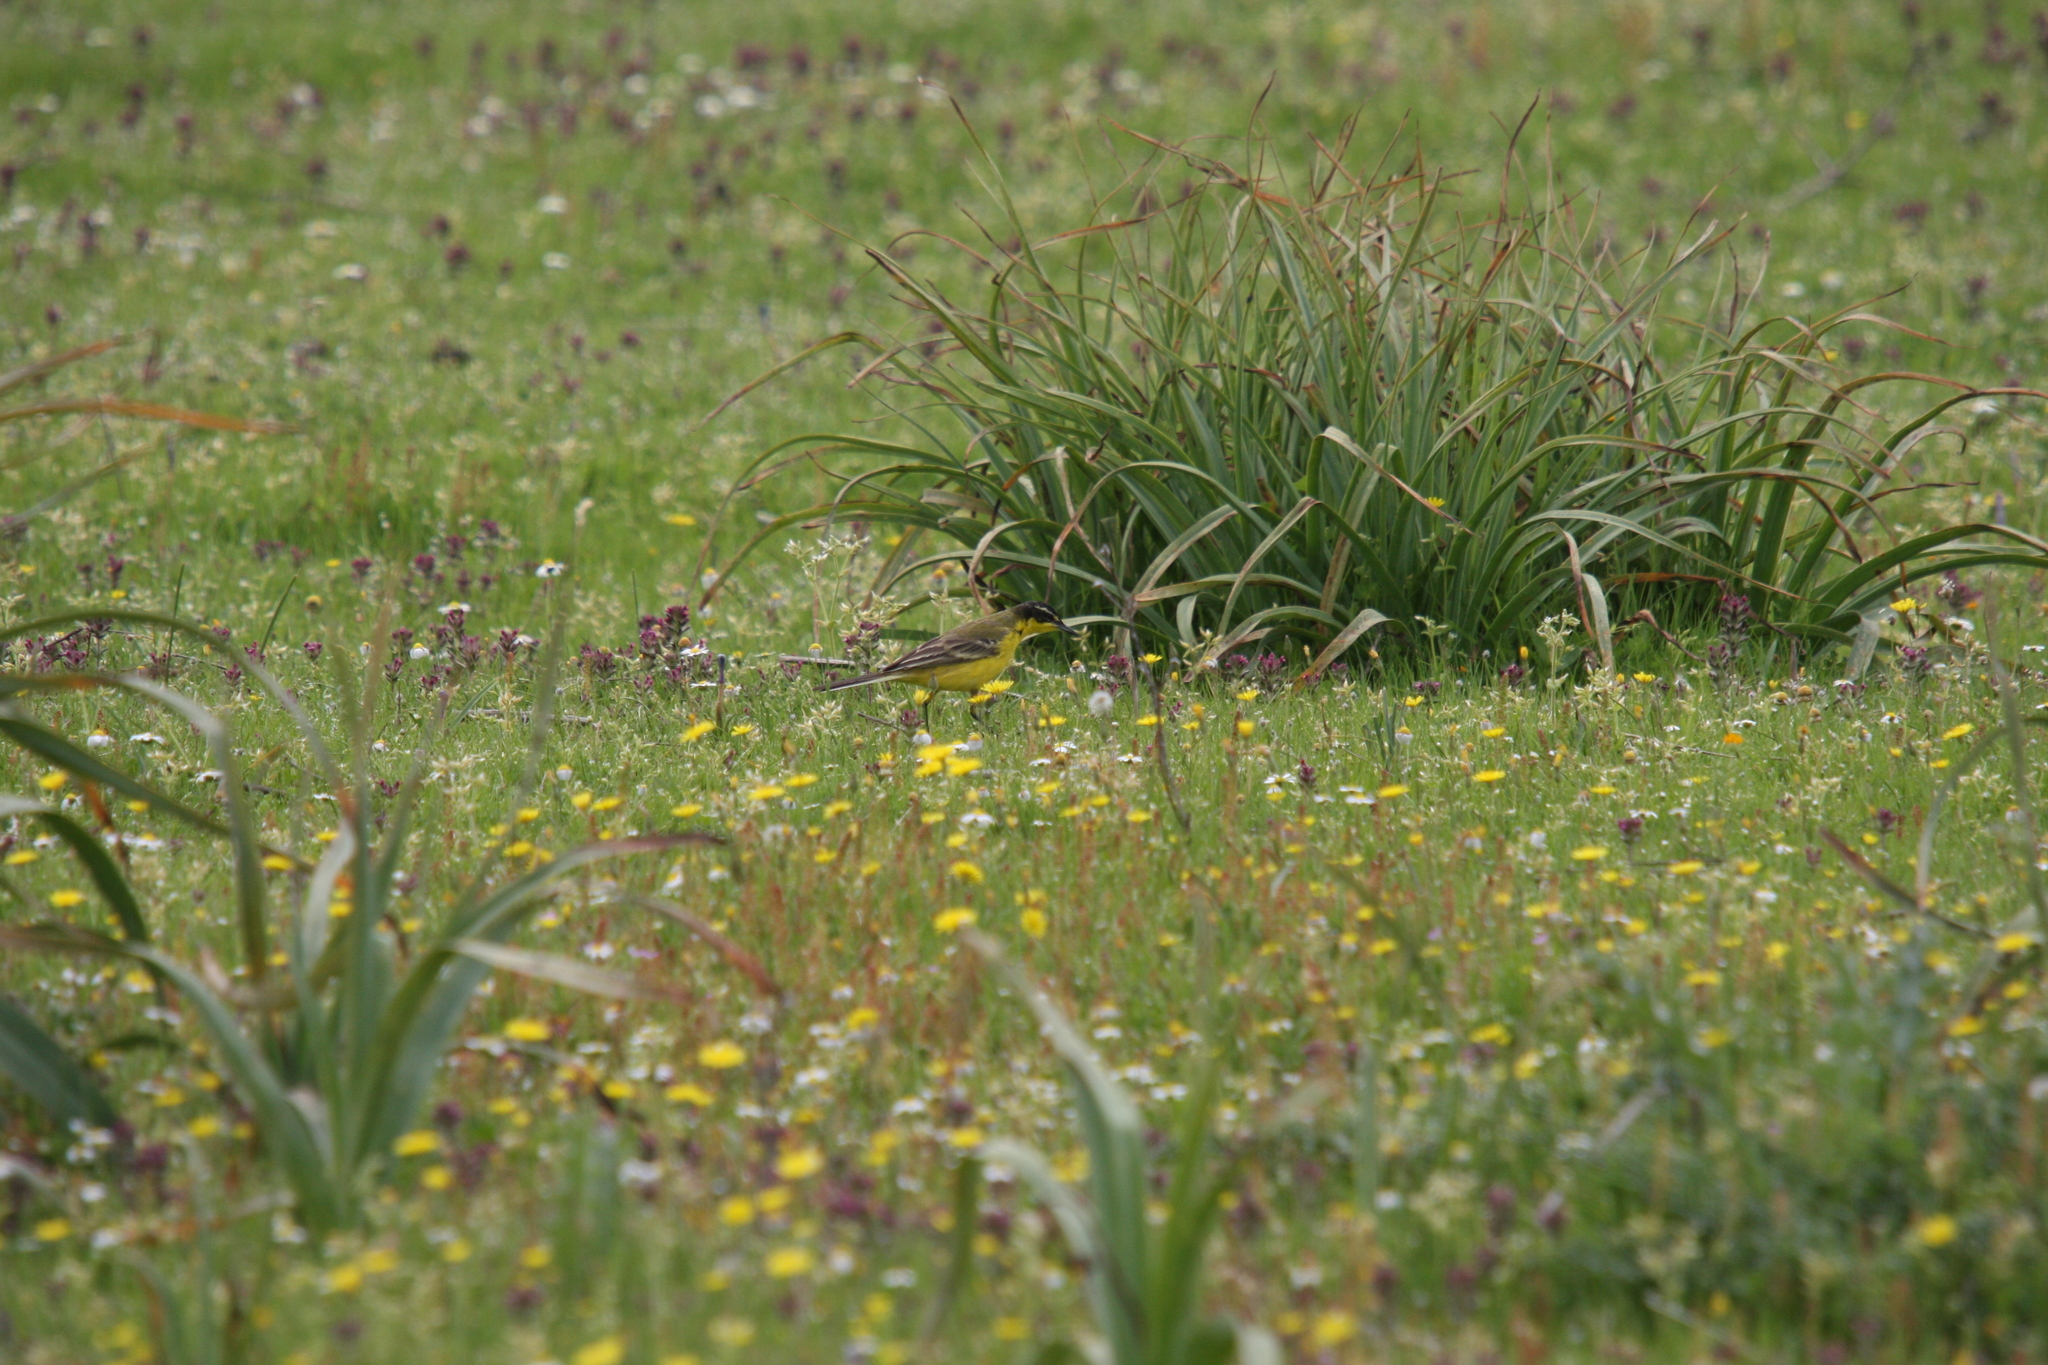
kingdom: Animalia
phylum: Chordata
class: Aves
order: Passeriformes
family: Motacillidae
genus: Motacilla
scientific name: Motacilla flava
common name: Western yellow wagtail
